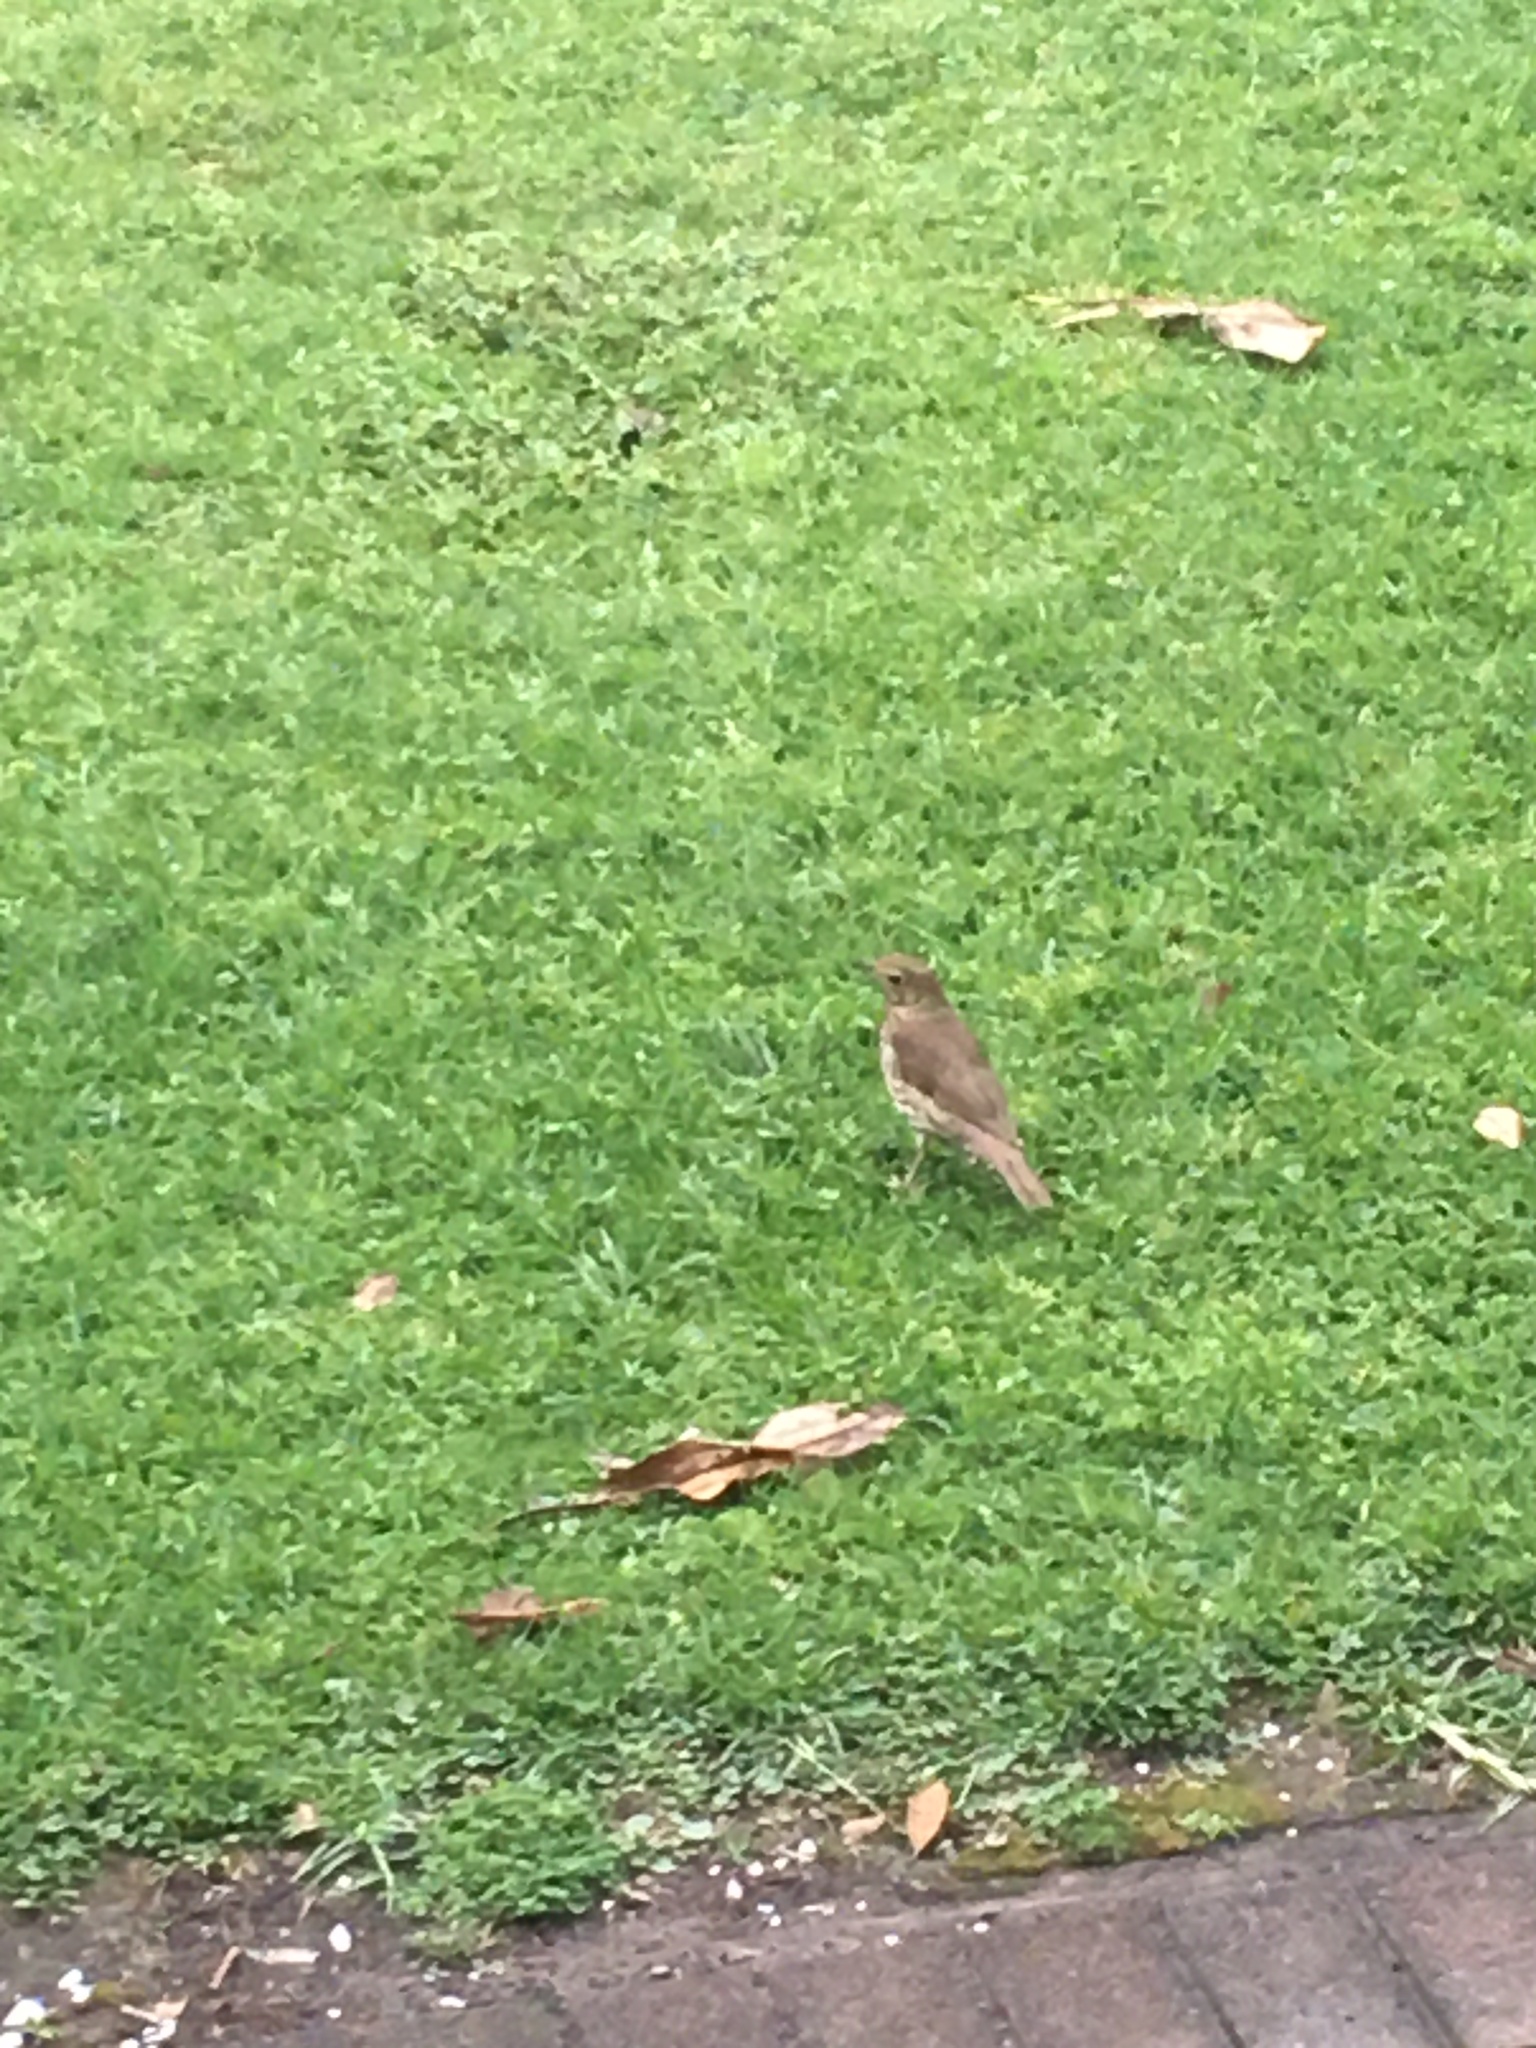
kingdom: Animalia
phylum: Chordata
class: Aves
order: Passeriformes
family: Turdidae
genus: Turdus
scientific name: Turdus philomelos
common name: Song thrush
